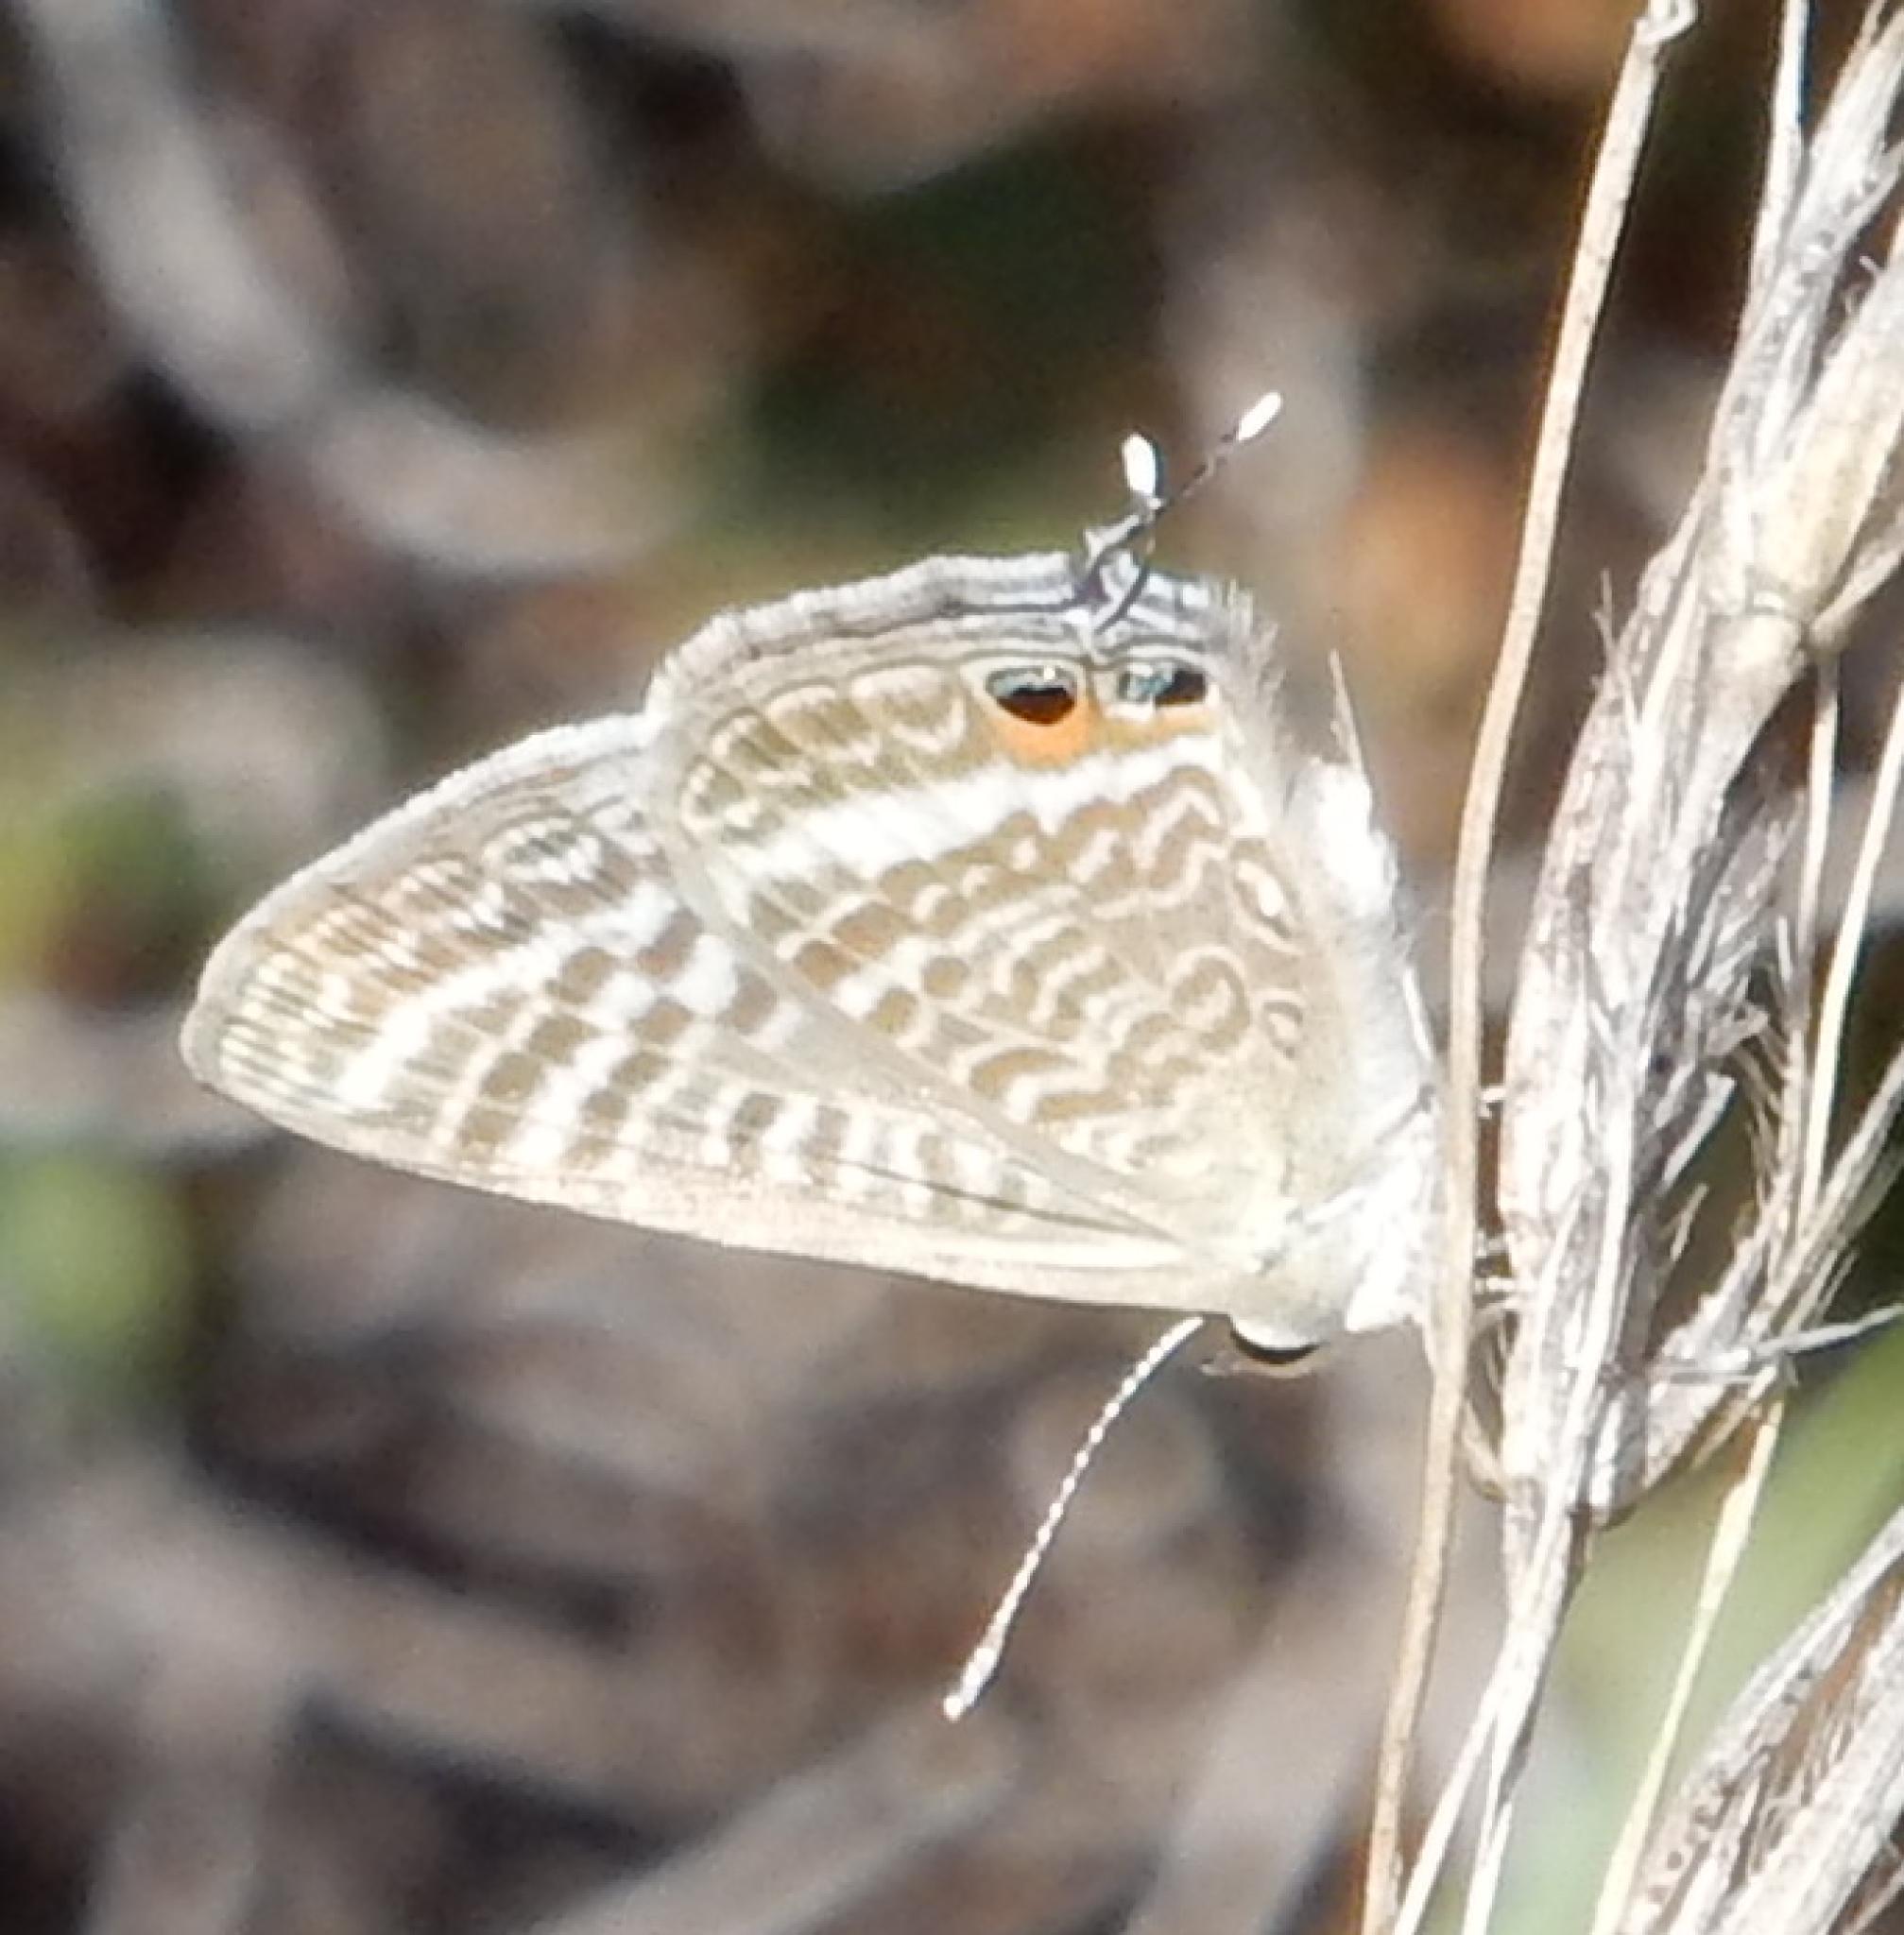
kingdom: Animalia
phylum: Arthropoda
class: Insecta
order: Lepidoptera
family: Lycaenidae
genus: Lampides
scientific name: Lampides boeticus
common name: Long-tailed blue
